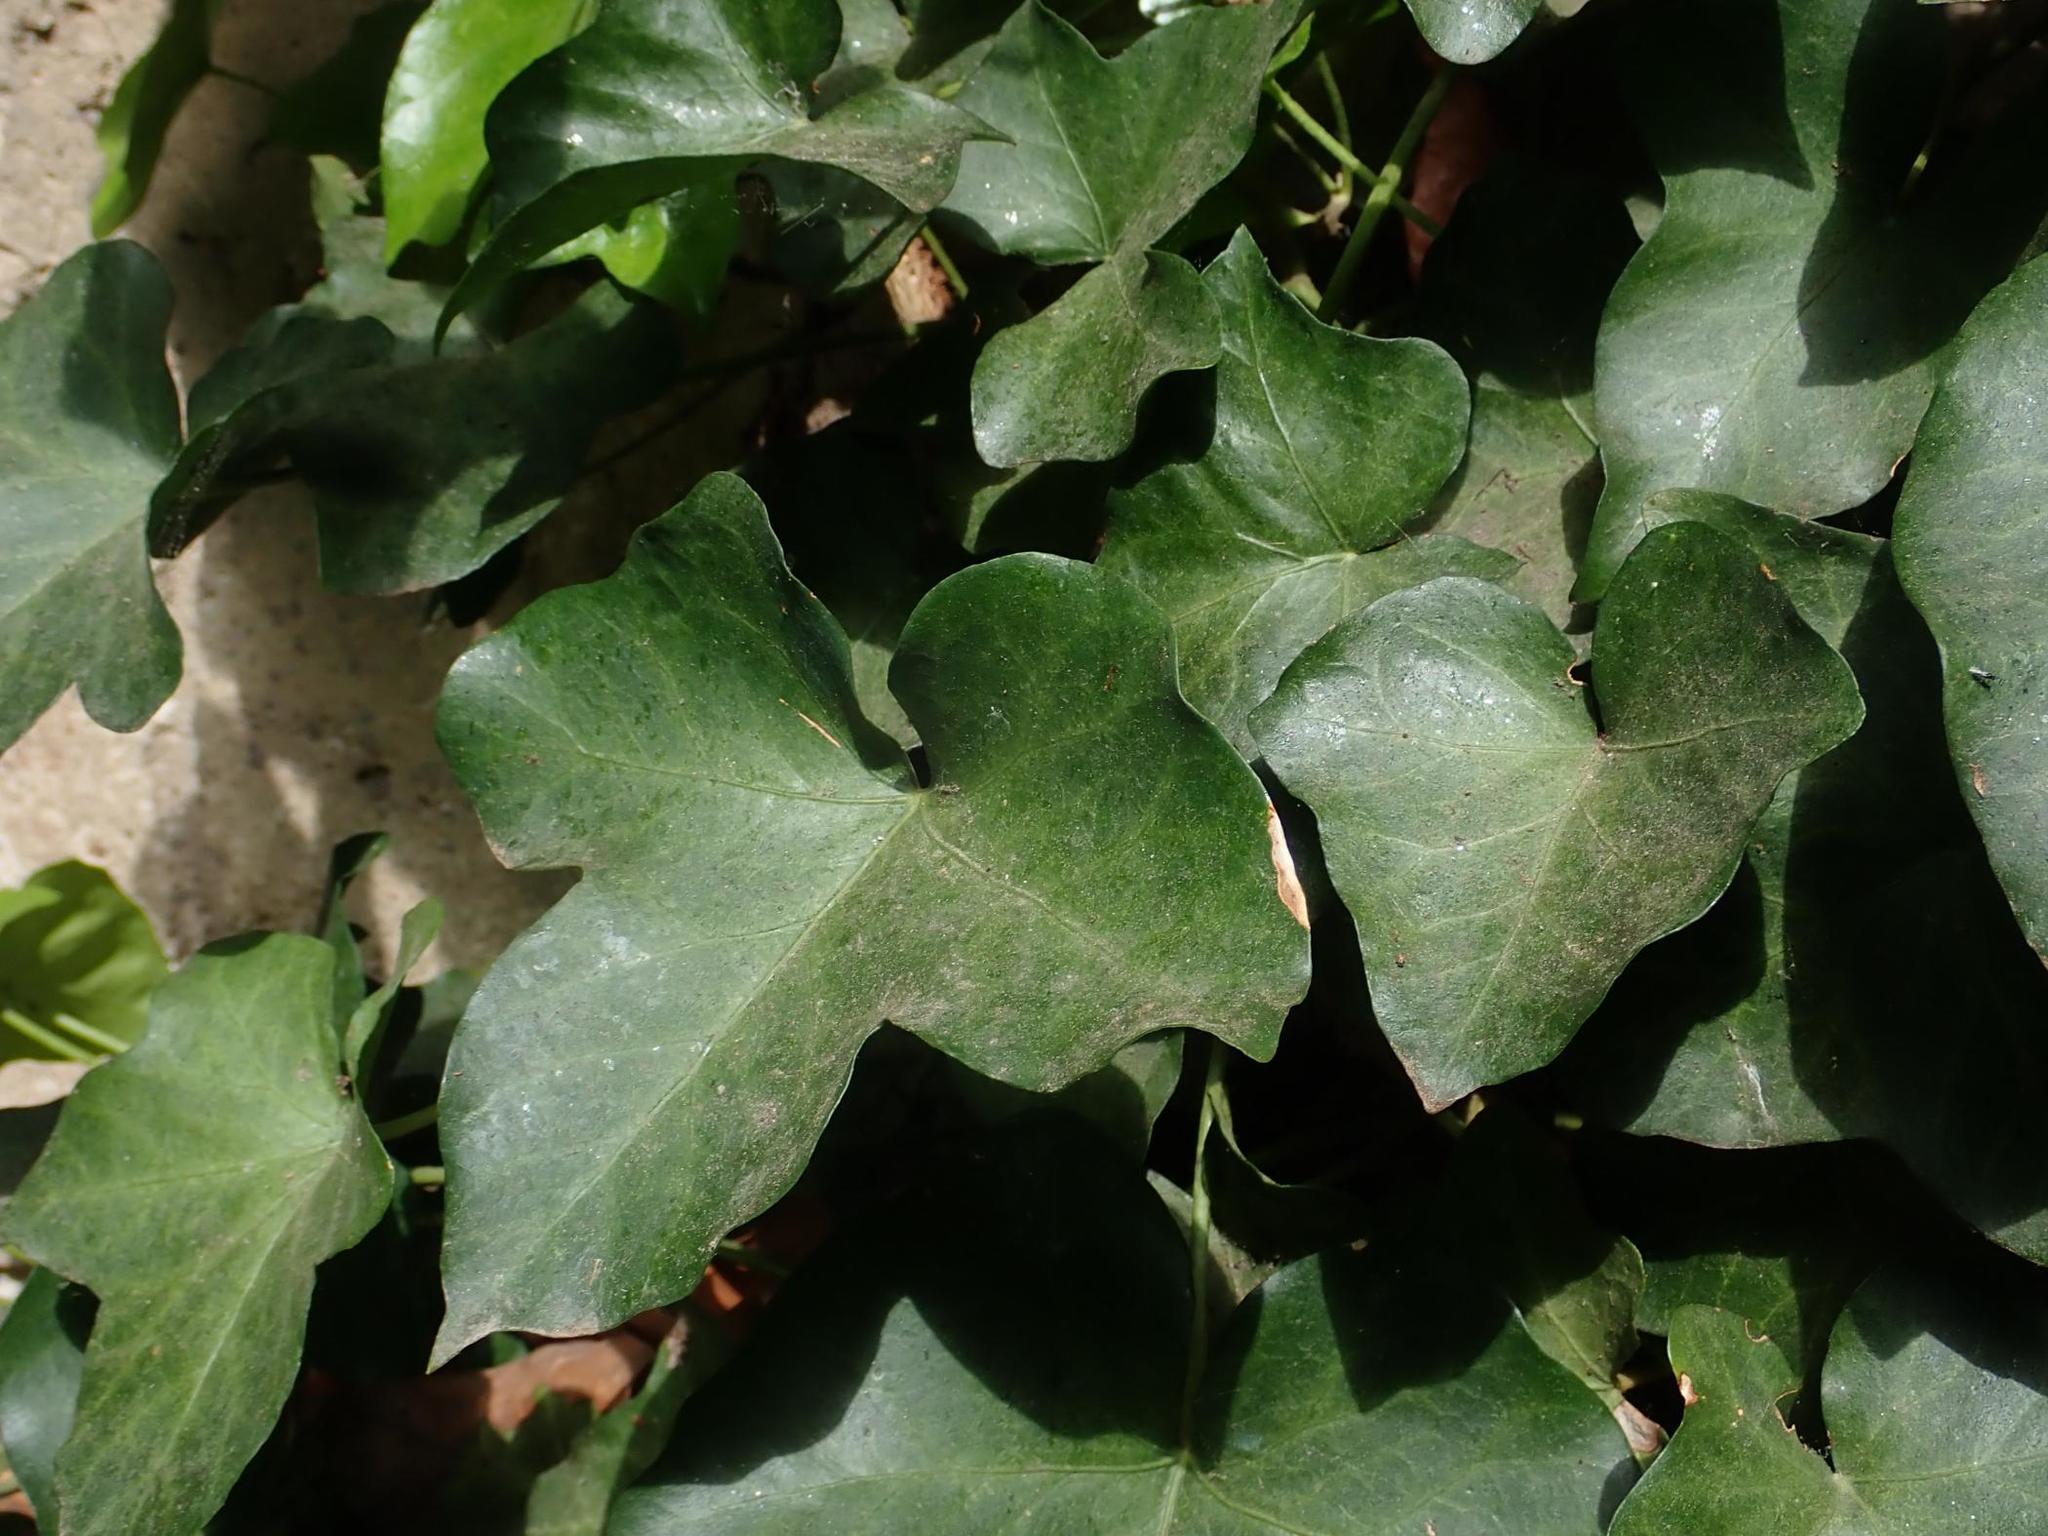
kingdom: Plantae
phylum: Tracheophyta
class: Magnoliopsida
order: Apiales
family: Araliaceae
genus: Hedera
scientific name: Hedera helix
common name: Ivy
